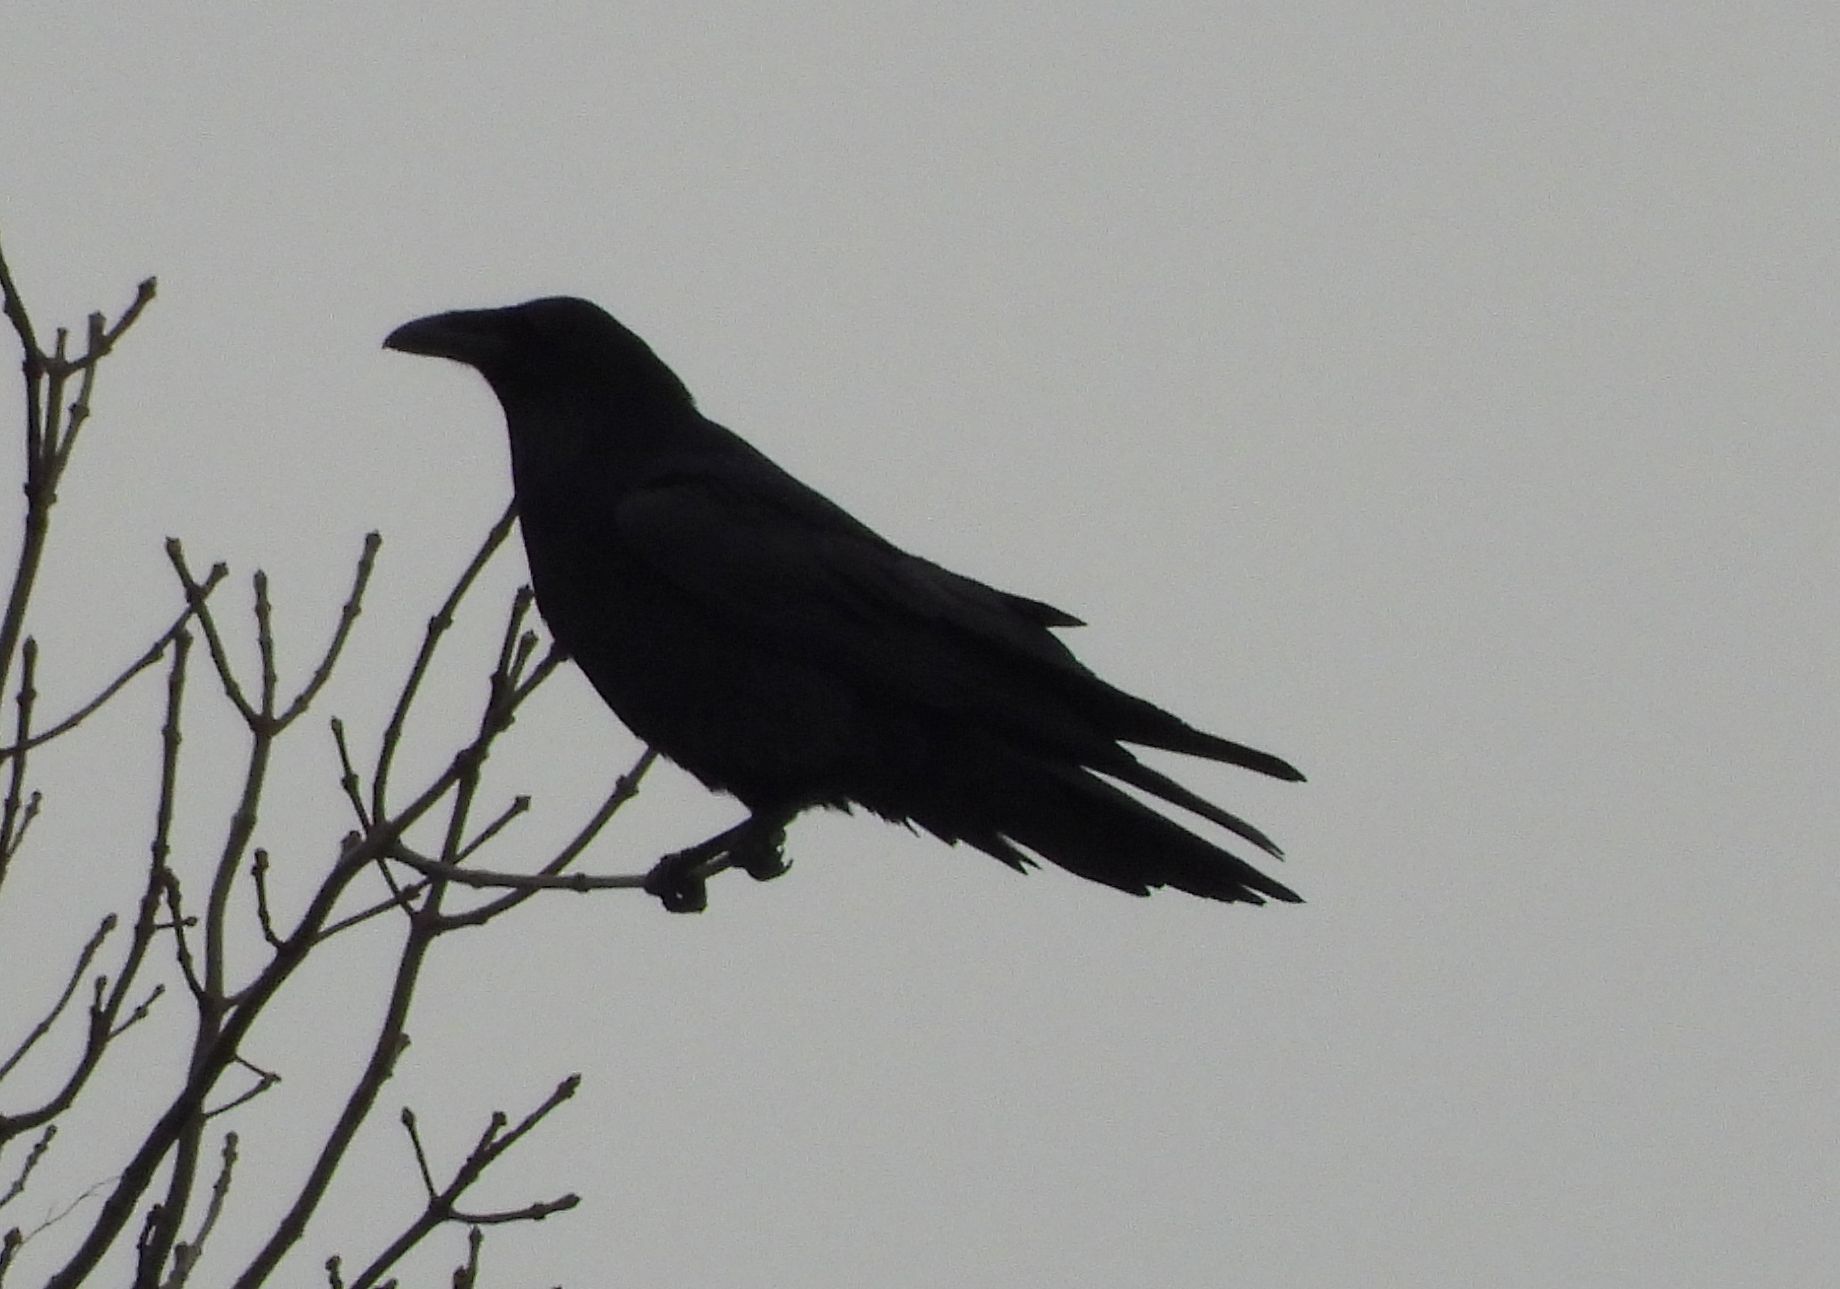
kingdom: Animalia
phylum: Chordata
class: Aves
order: Passeriformes
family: Corvidae
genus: Corvus
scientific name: Corvus corax
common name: Common raven
